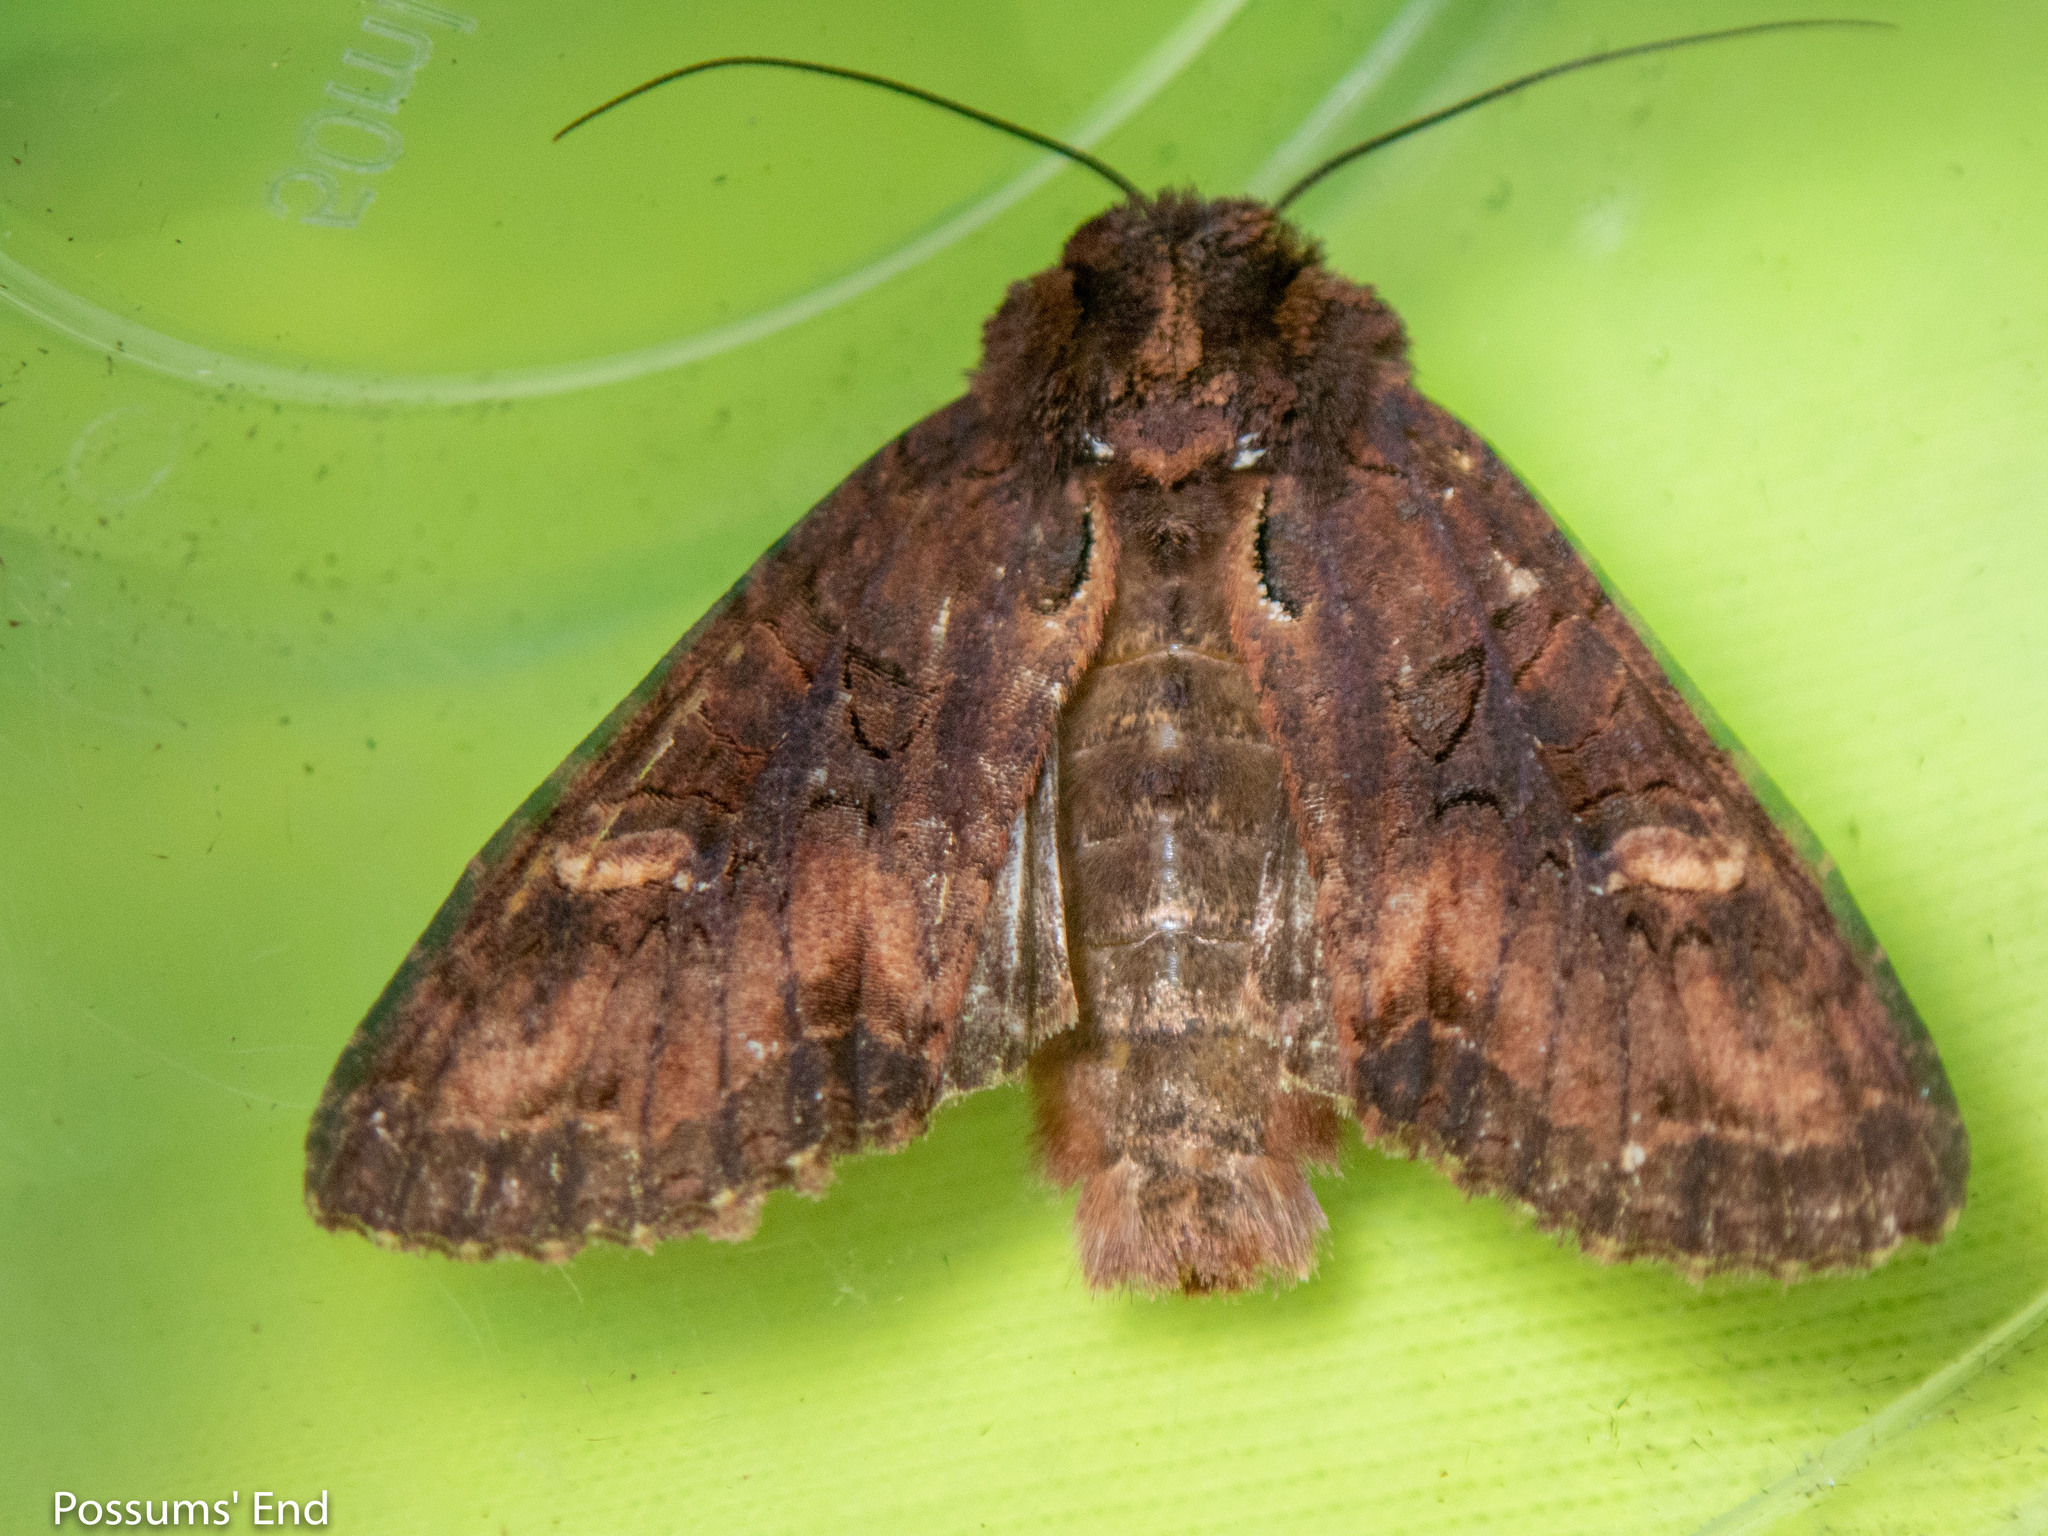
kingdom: Animalia
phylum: Arthropoda
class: Insecta
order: Lepidoptera
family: Noctuidae
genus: Meterana
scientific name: Meterana dotata
